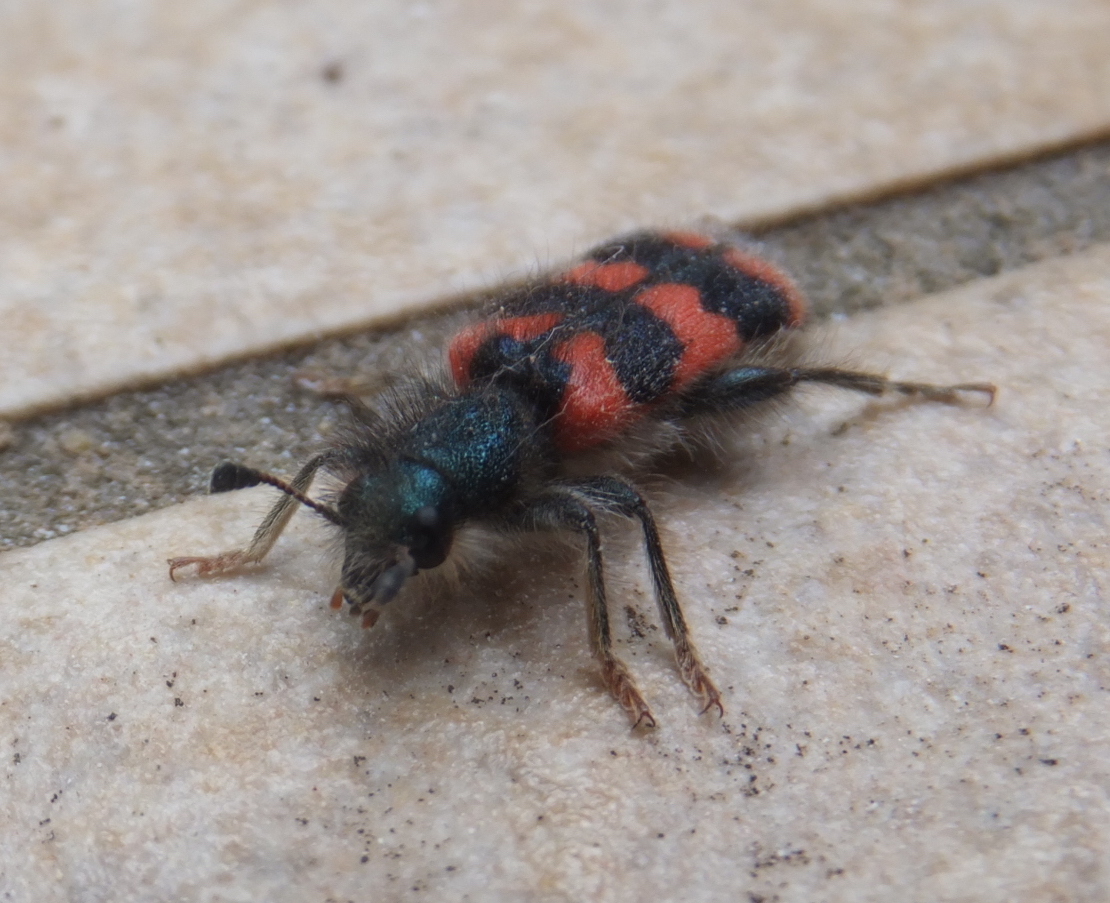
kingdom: Animalia
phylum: Arthropoda
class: Insecta
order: Coleoptera
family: Cleridae
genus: Trichodes
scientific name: Trichodes alvearius
